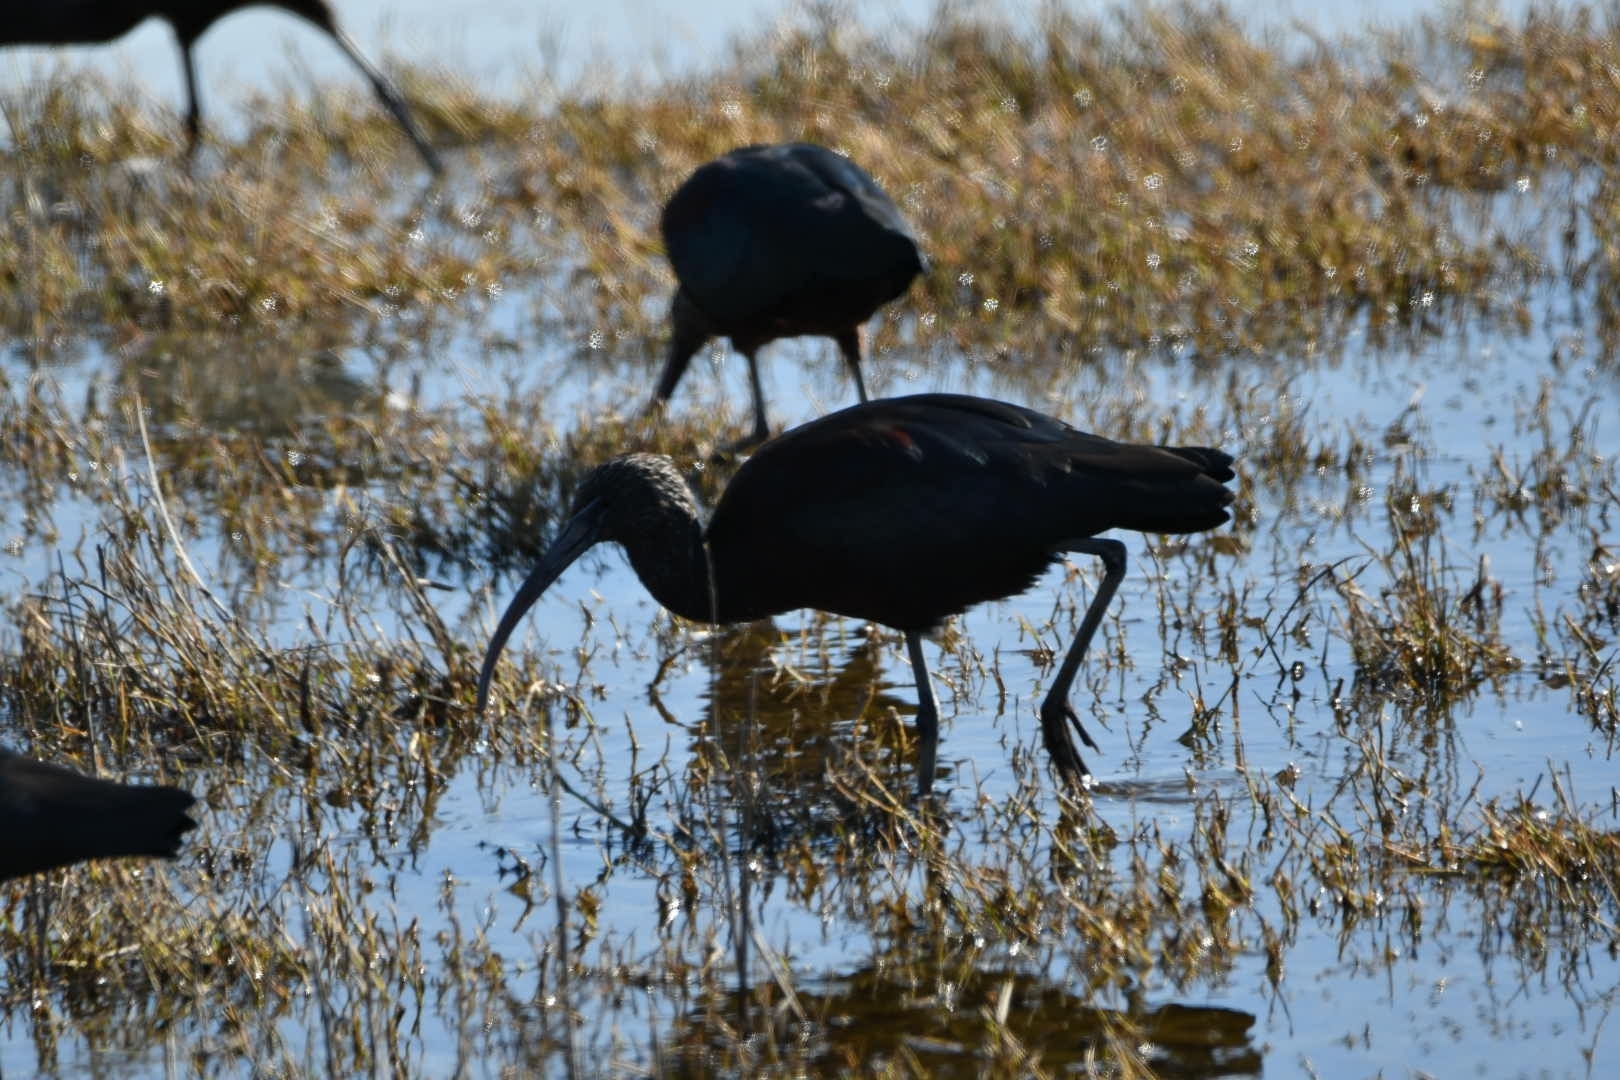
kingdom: Animalia
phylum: Chordata
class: Aves
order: Pelecaniformes
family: Threskiornithidae
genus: Plegadis
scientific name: Plegadis falcinellus
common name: Glossy ibis
